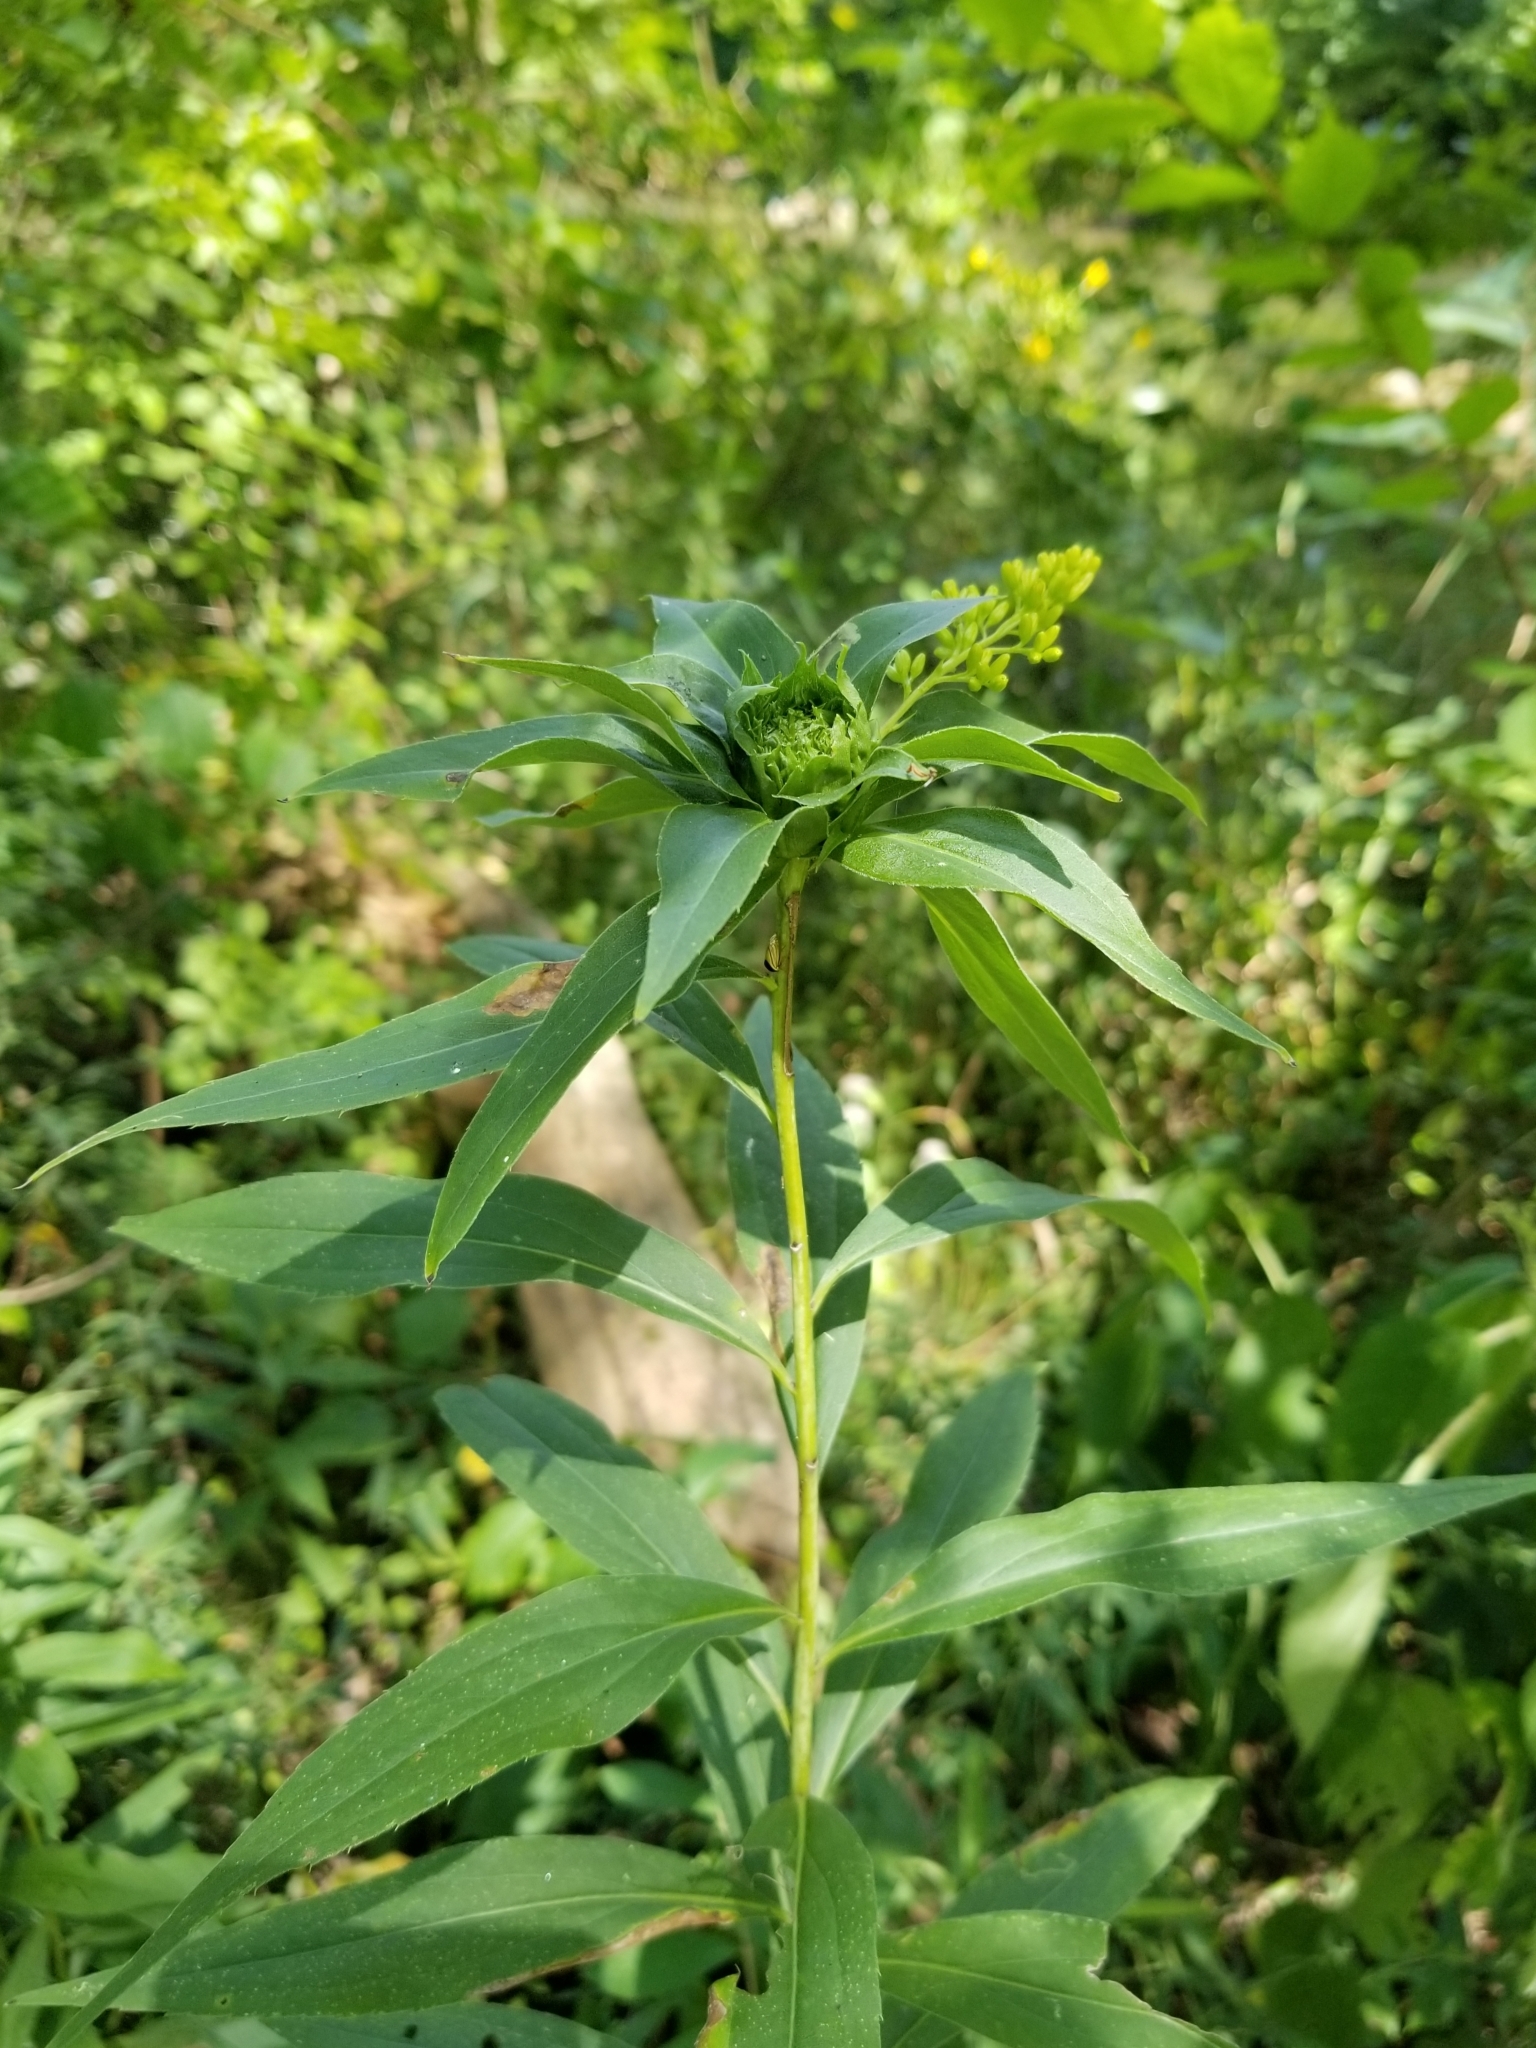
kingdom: Animalia
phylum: Arthropoda
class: Insecta
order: Diptera
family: Cecidomyiidae
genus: Rhopalomyia
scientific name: Rhopalomyia capitata
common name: Giant goldenrod bunch gall midge
